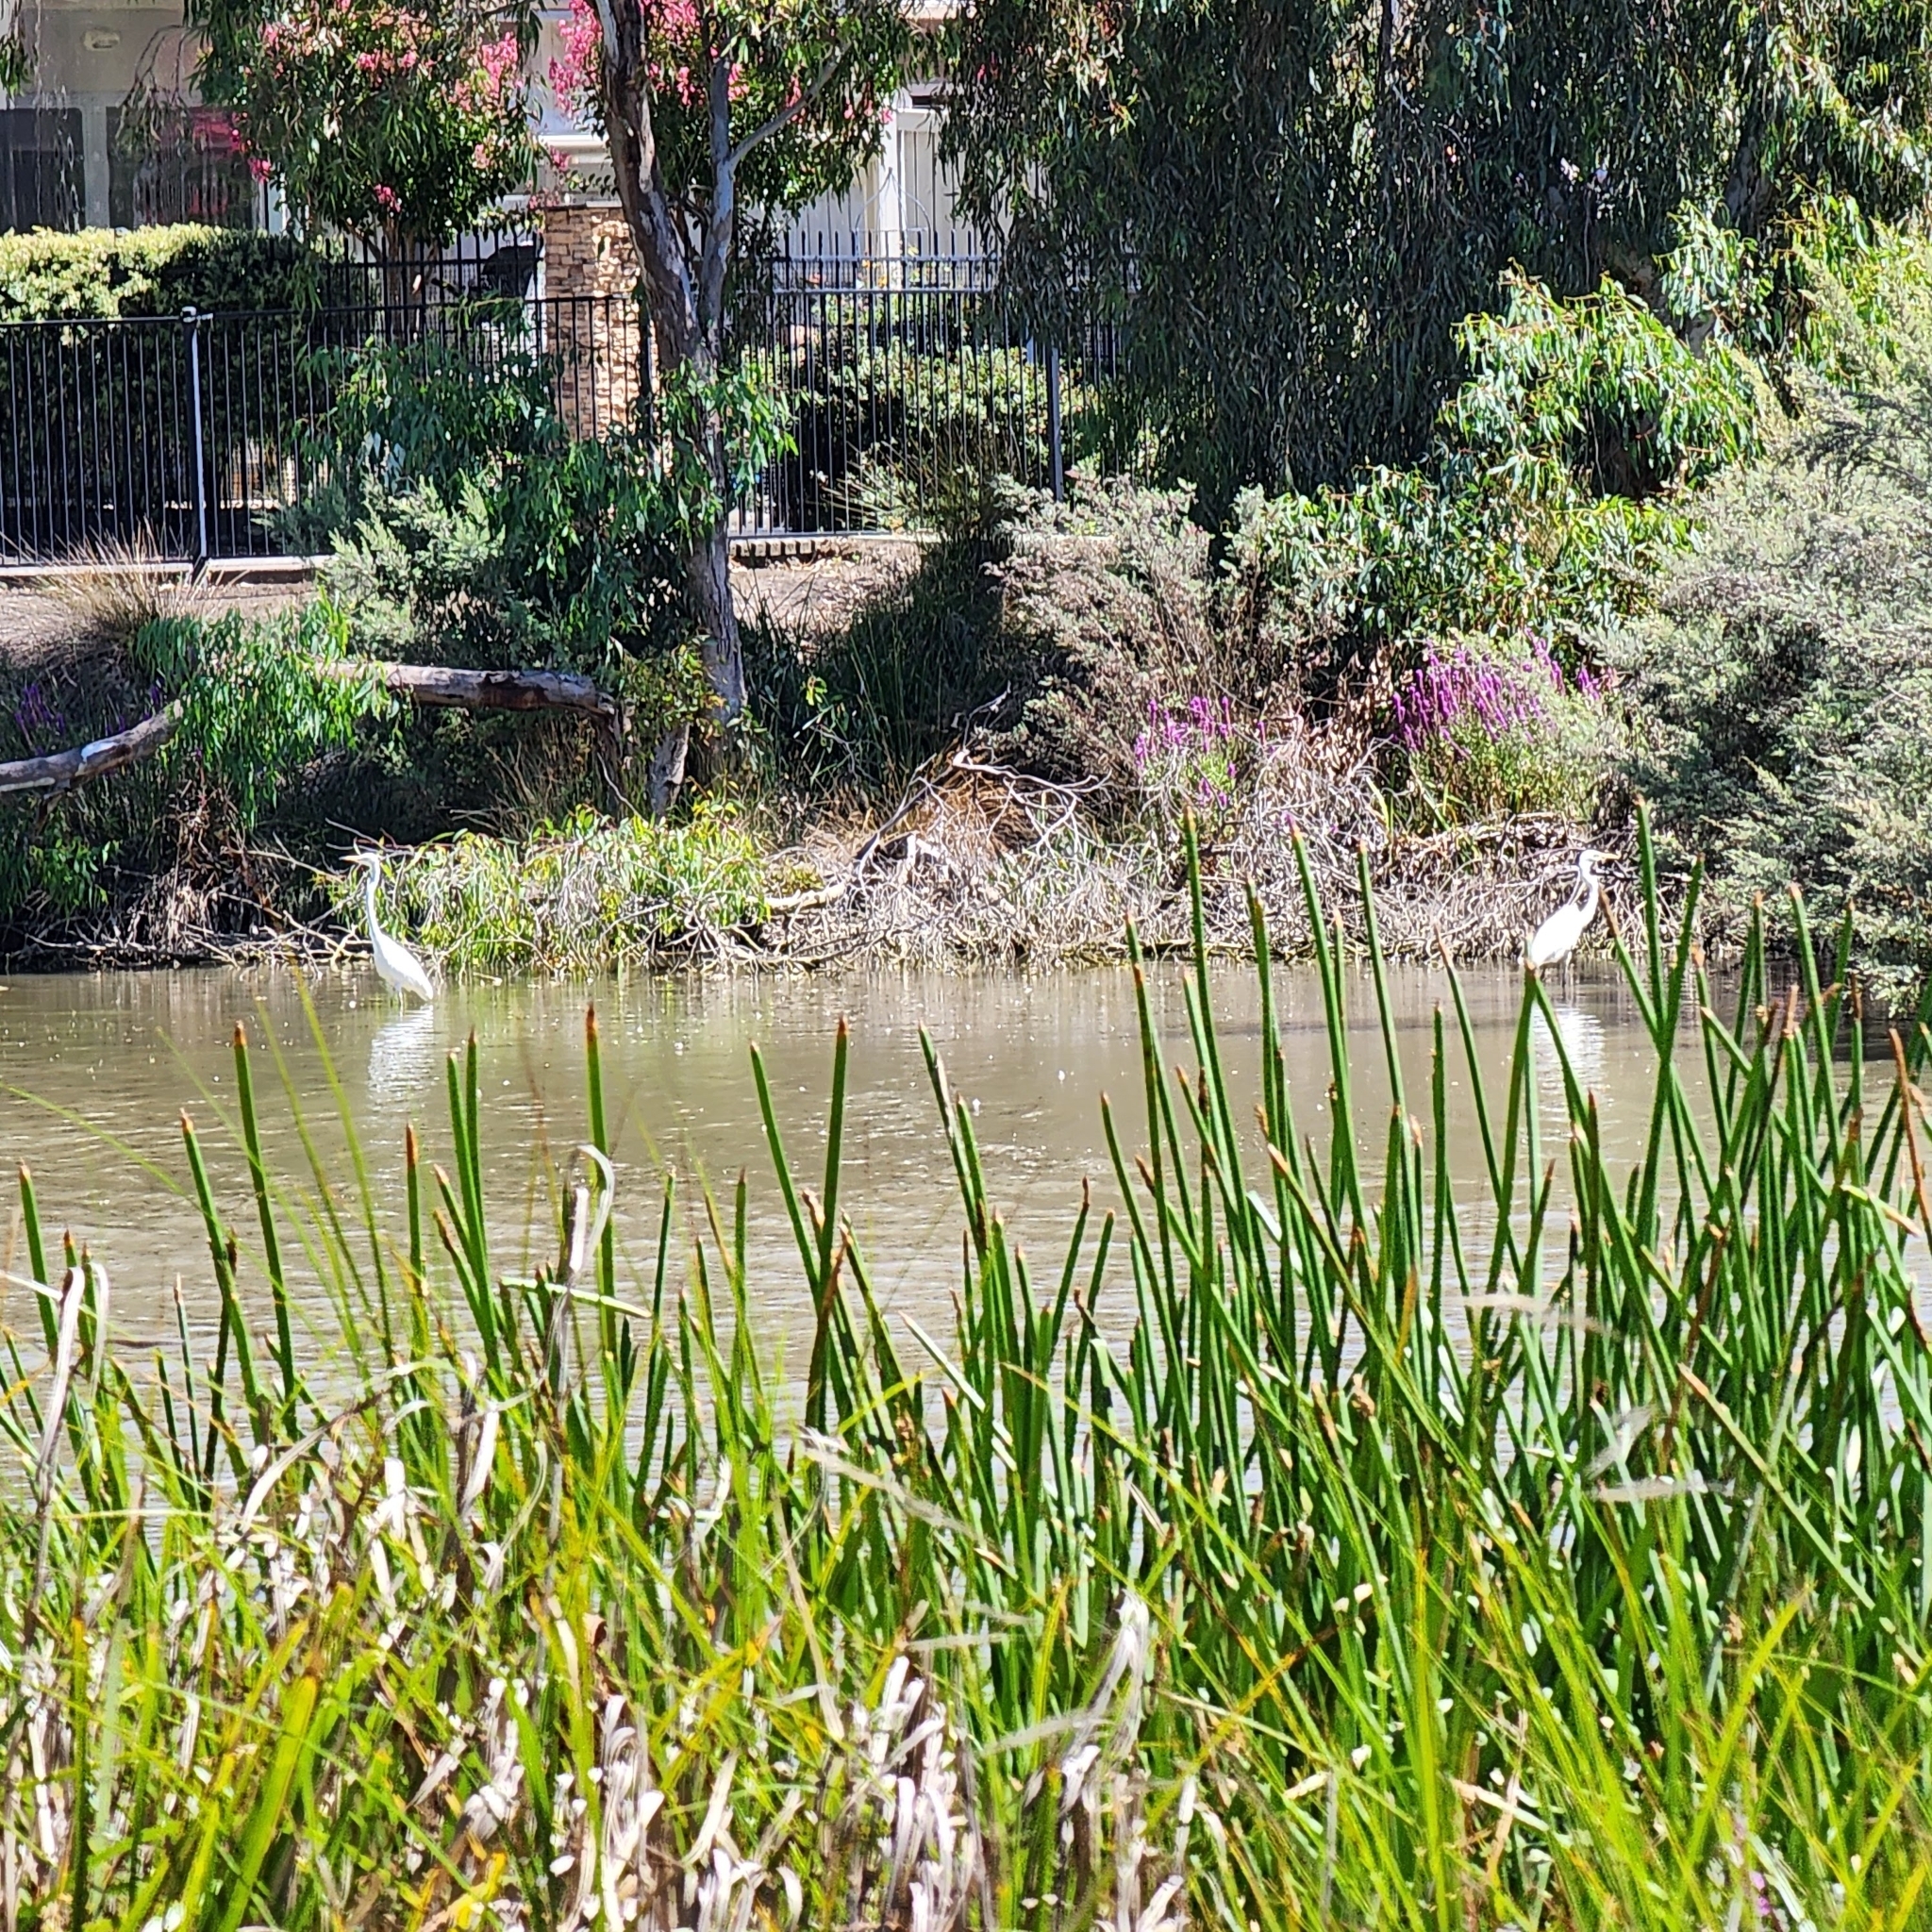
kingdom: Animalia
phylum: Chordata
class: Aves
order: Pelecaniformes
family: Ardeidae
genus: Ardea
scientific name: Ardea alba
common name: Great egret
